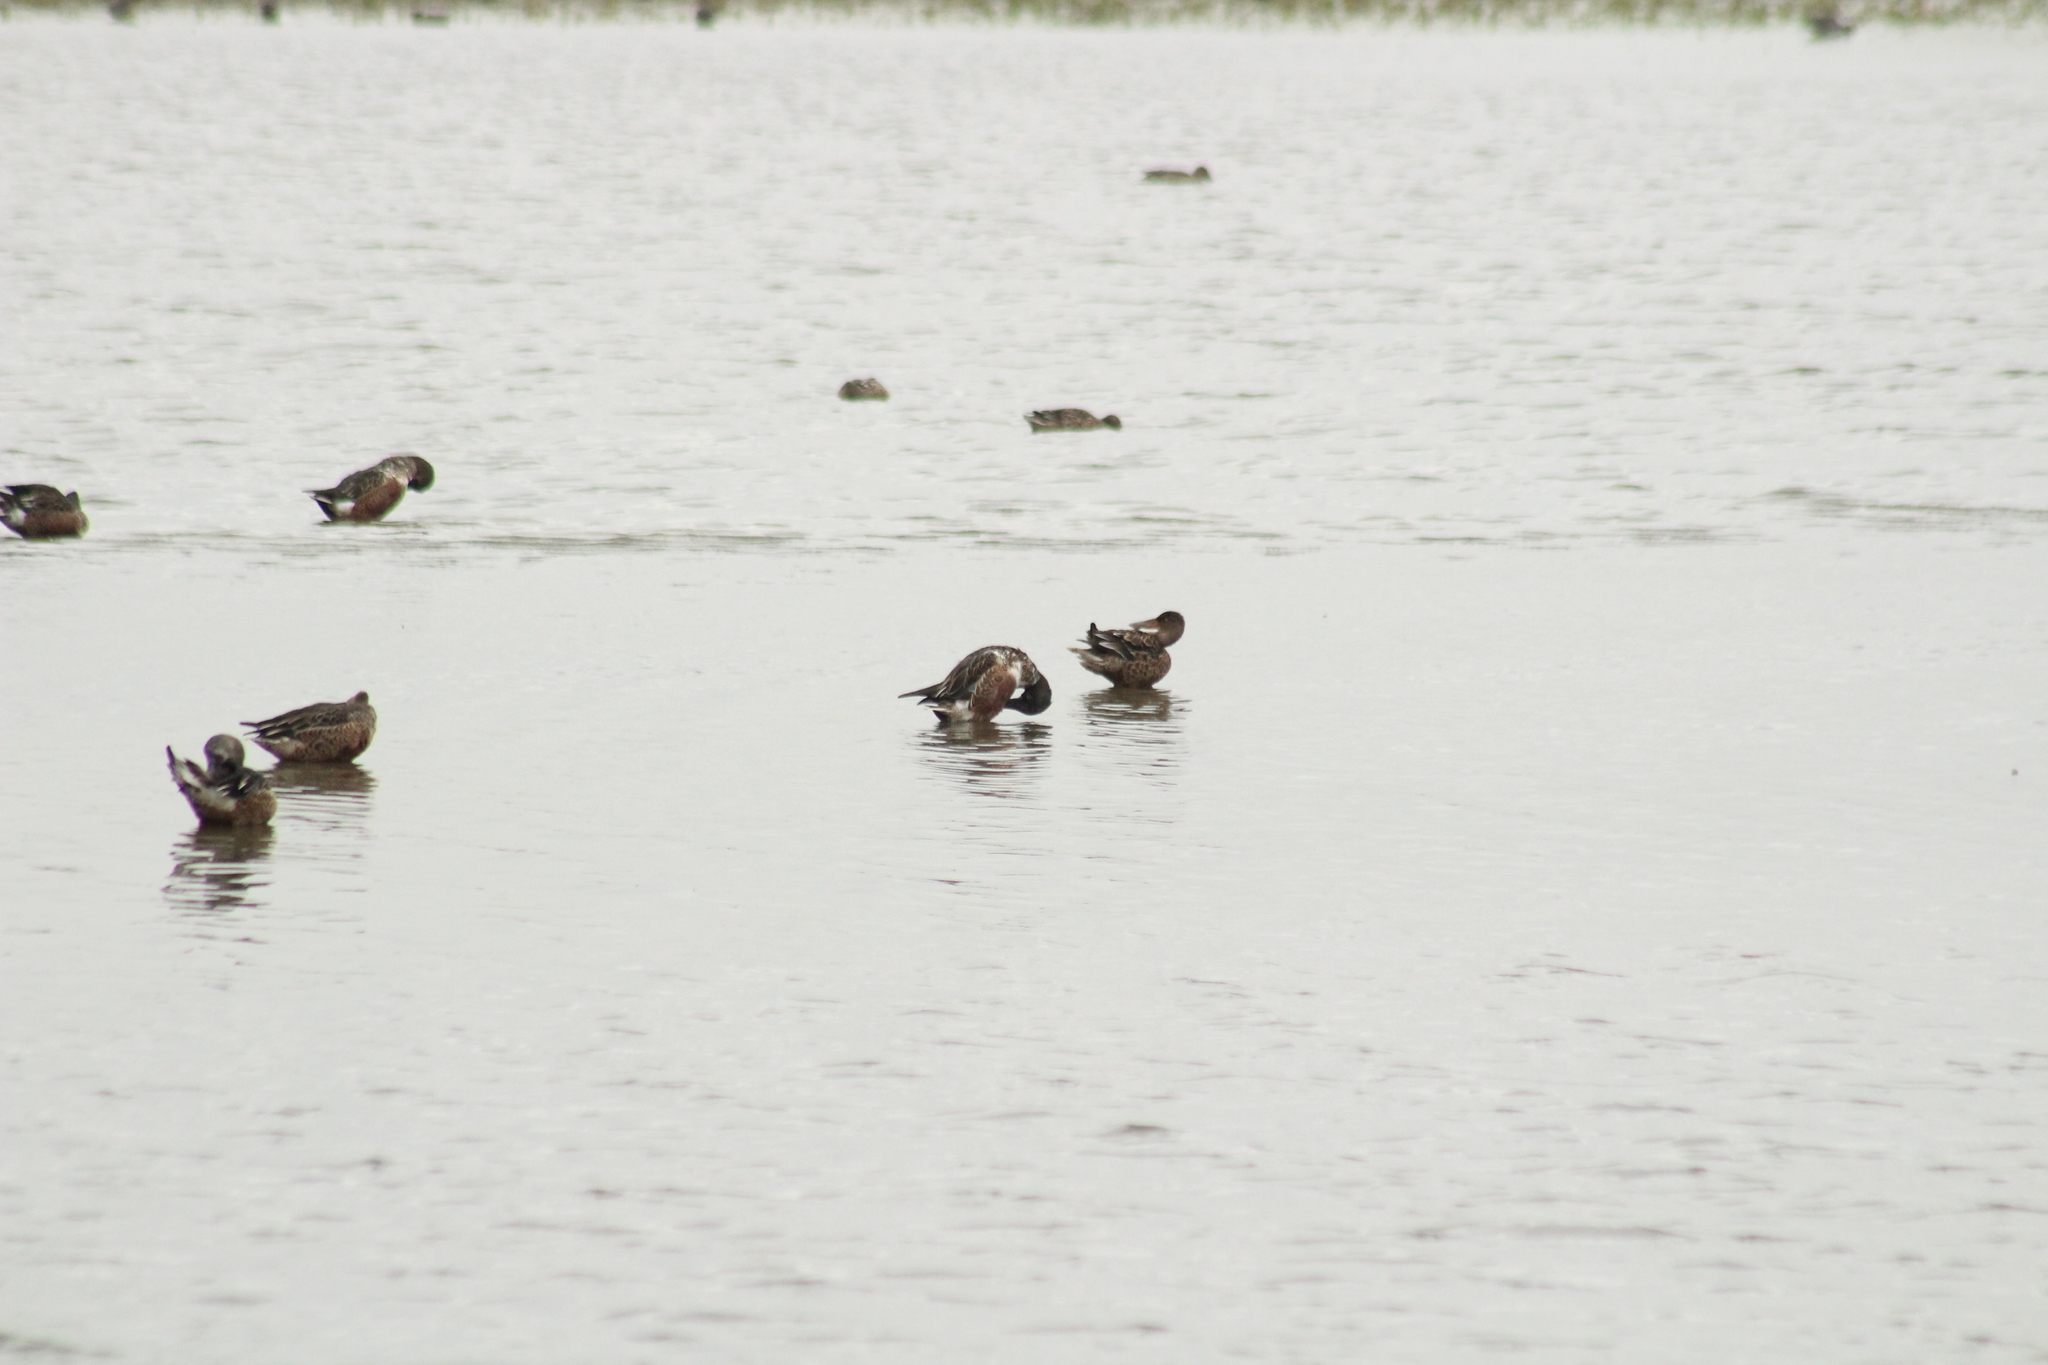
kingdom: Animalia
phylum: Chordata
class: Aves
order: Anseriformes
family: Anatidae
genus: Spatula
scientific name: Spatula clypeata
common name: Northern shoveler
